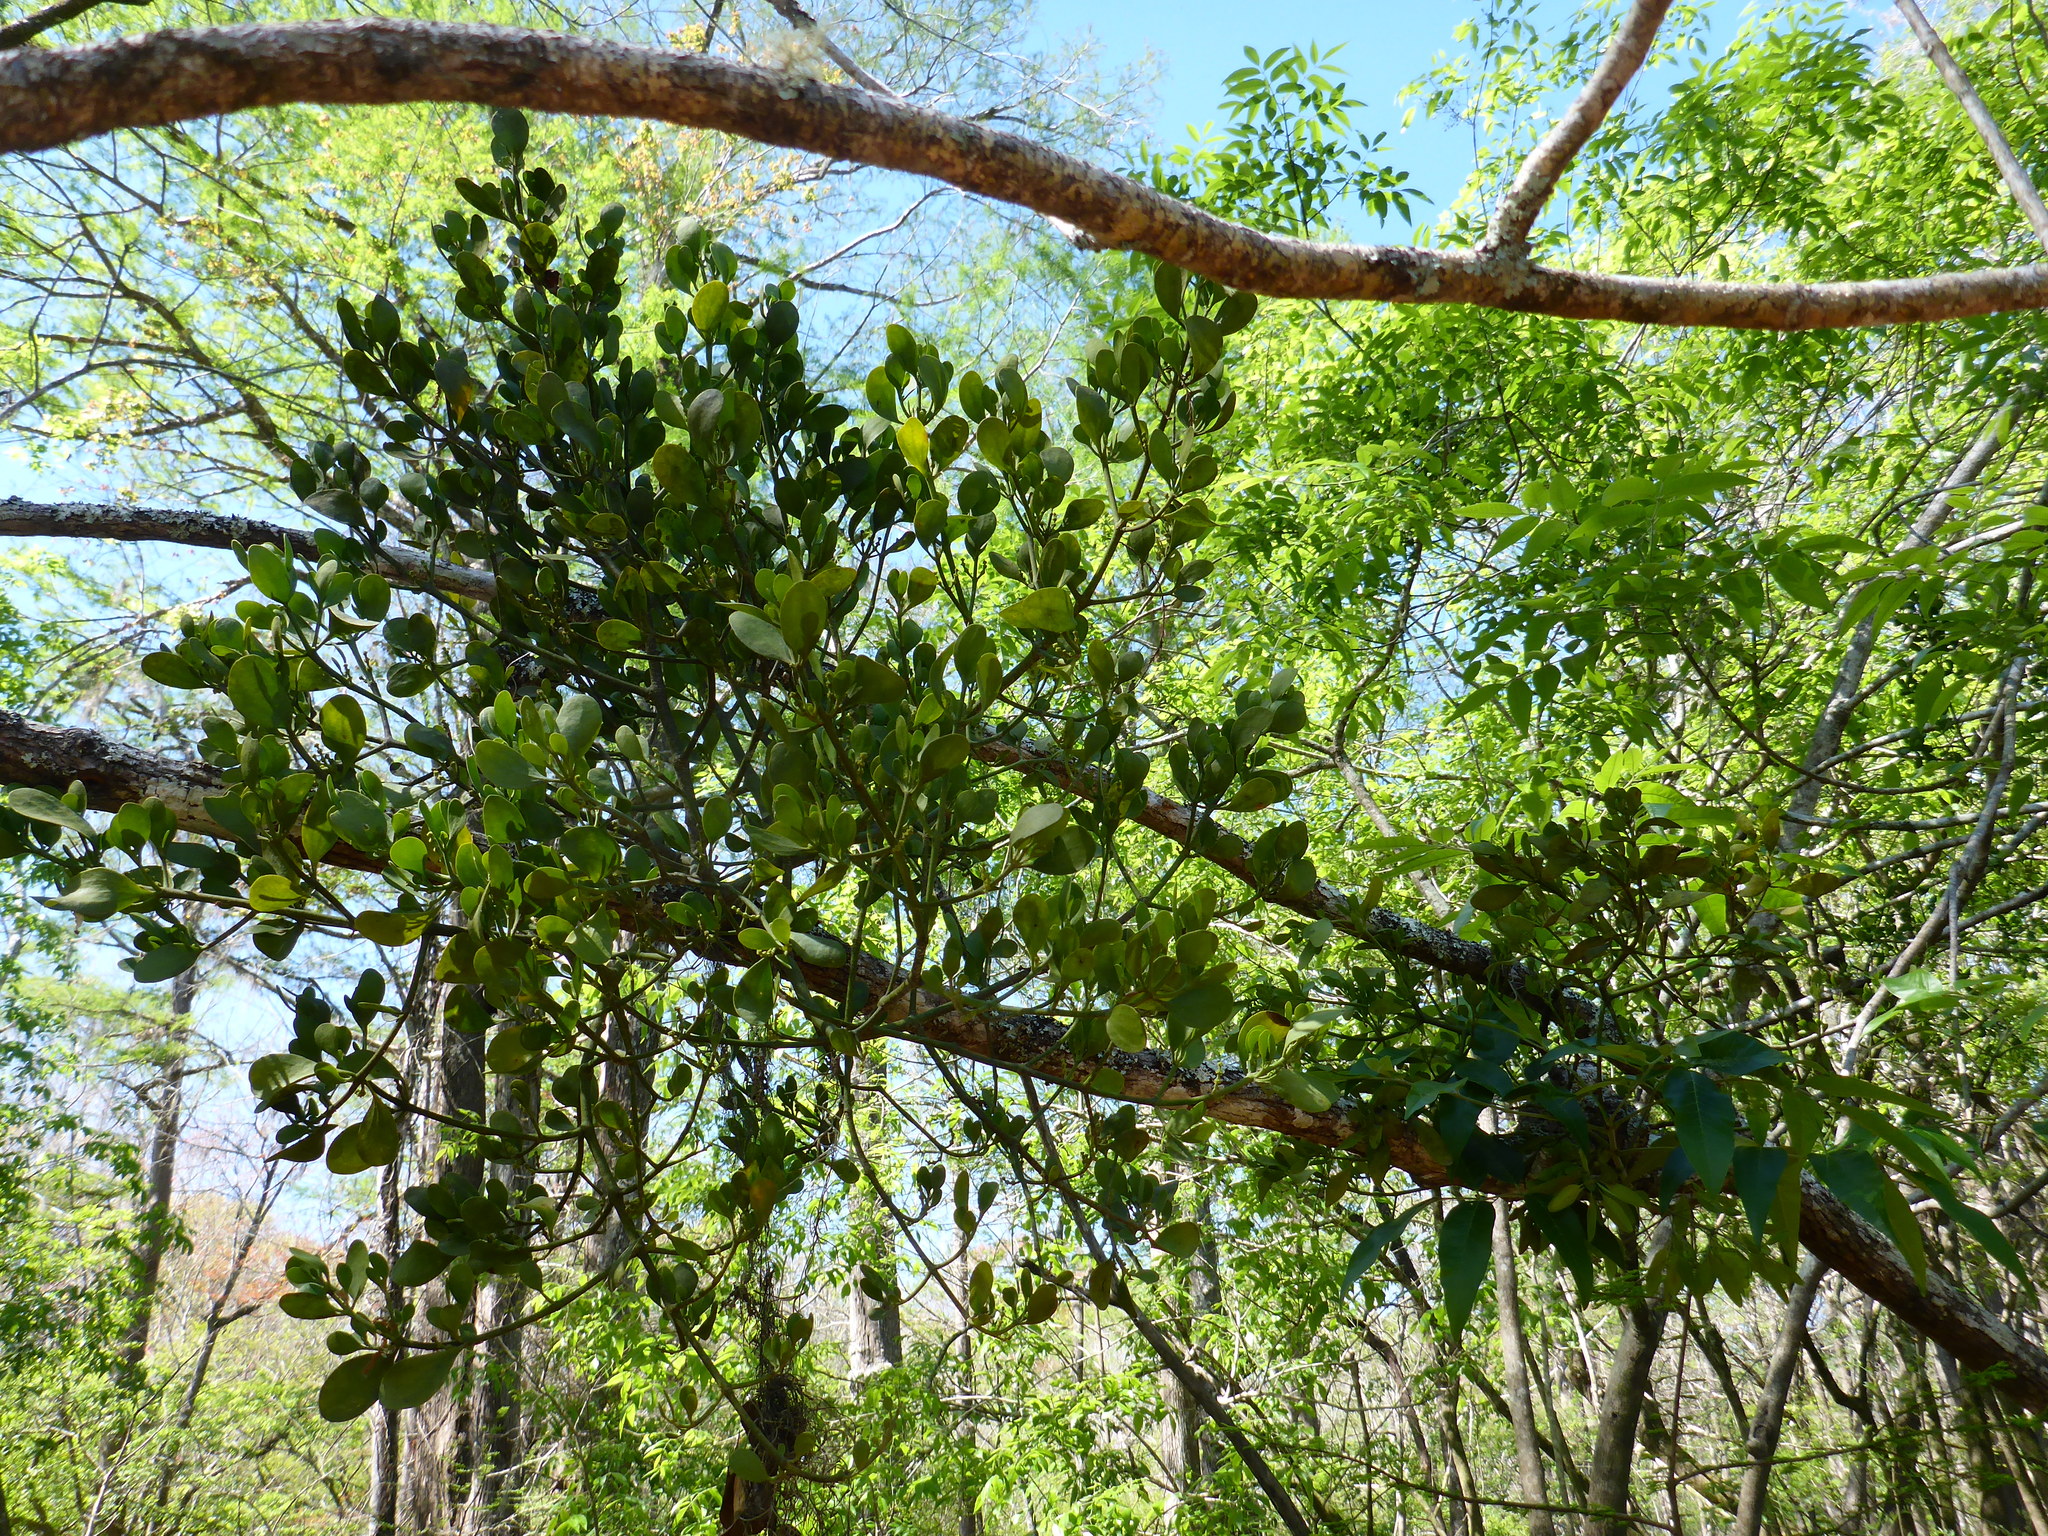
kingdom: Plantae
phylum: Tracheophyta
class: Magnoliopsida
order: Santalales
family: Viscaceae
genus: Phoradendron
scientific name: Phoradendron leucarpum
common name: Pacific mistletoe
